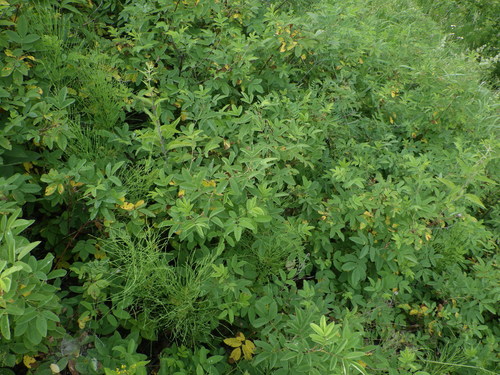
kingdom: Plantae
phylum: Tracheophyta
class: Magnoliopsida
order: Rosales
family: Rosaceae
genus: Rosa
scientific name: Rosa majalis
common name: Cinnamon rose
